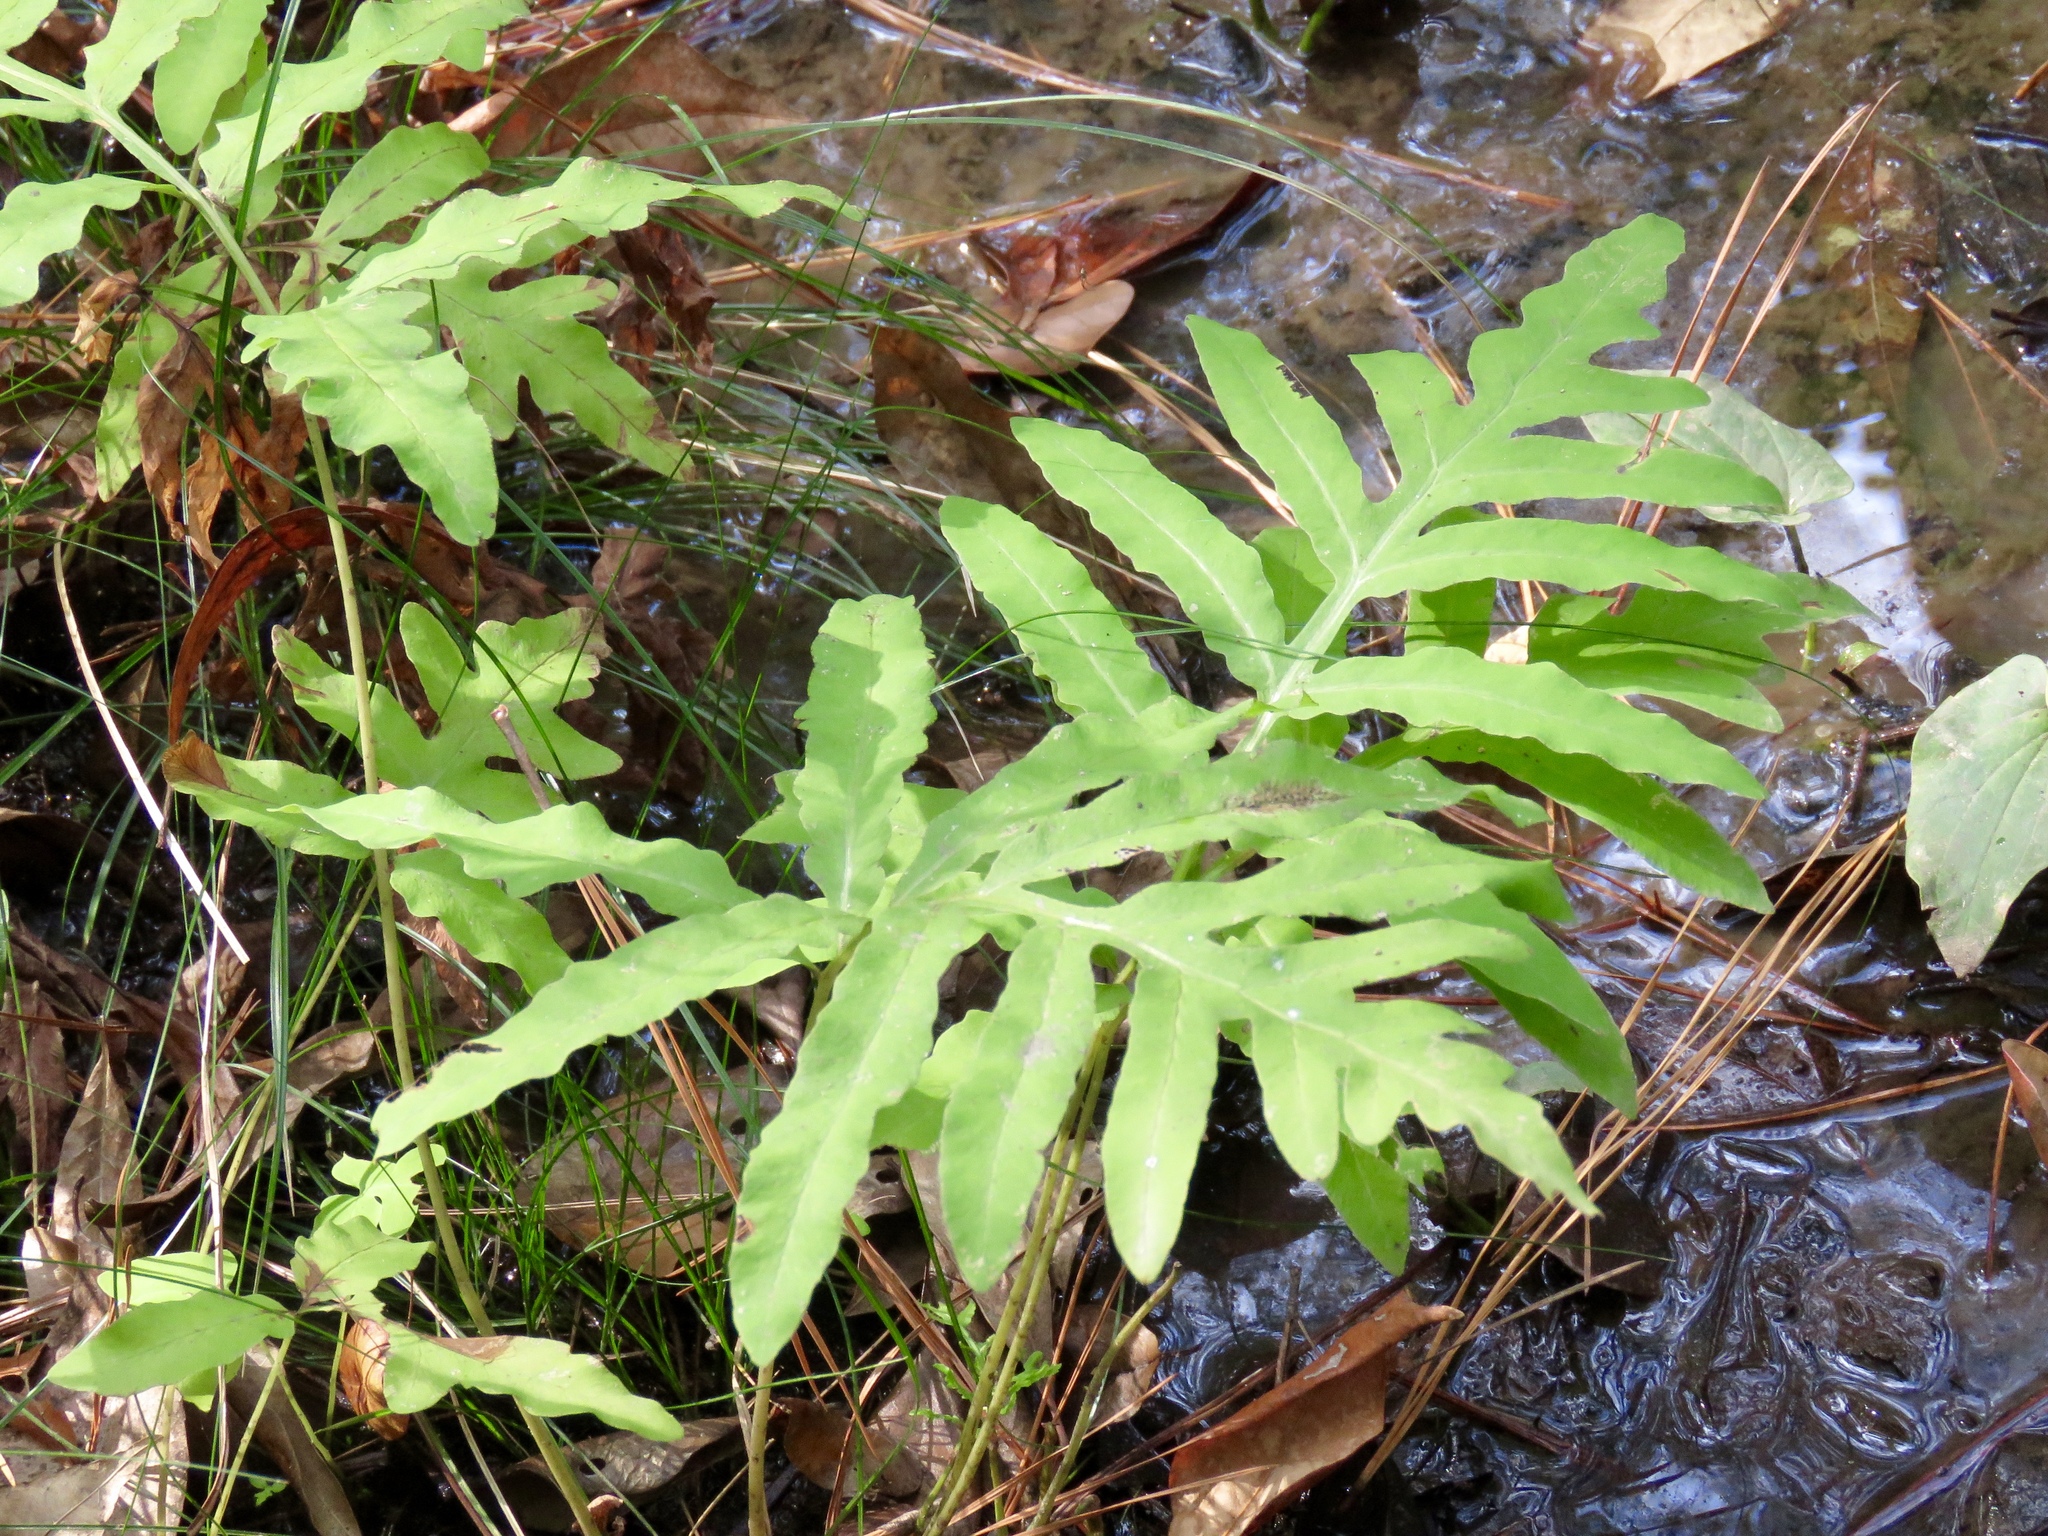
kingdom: Plantae
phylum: Tracheophyta
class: Polypodiopsida
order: Polypodiales
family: Onocleaceae
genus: Onoclea
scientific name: Onoclea sensibilis
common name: Sensitive fern
